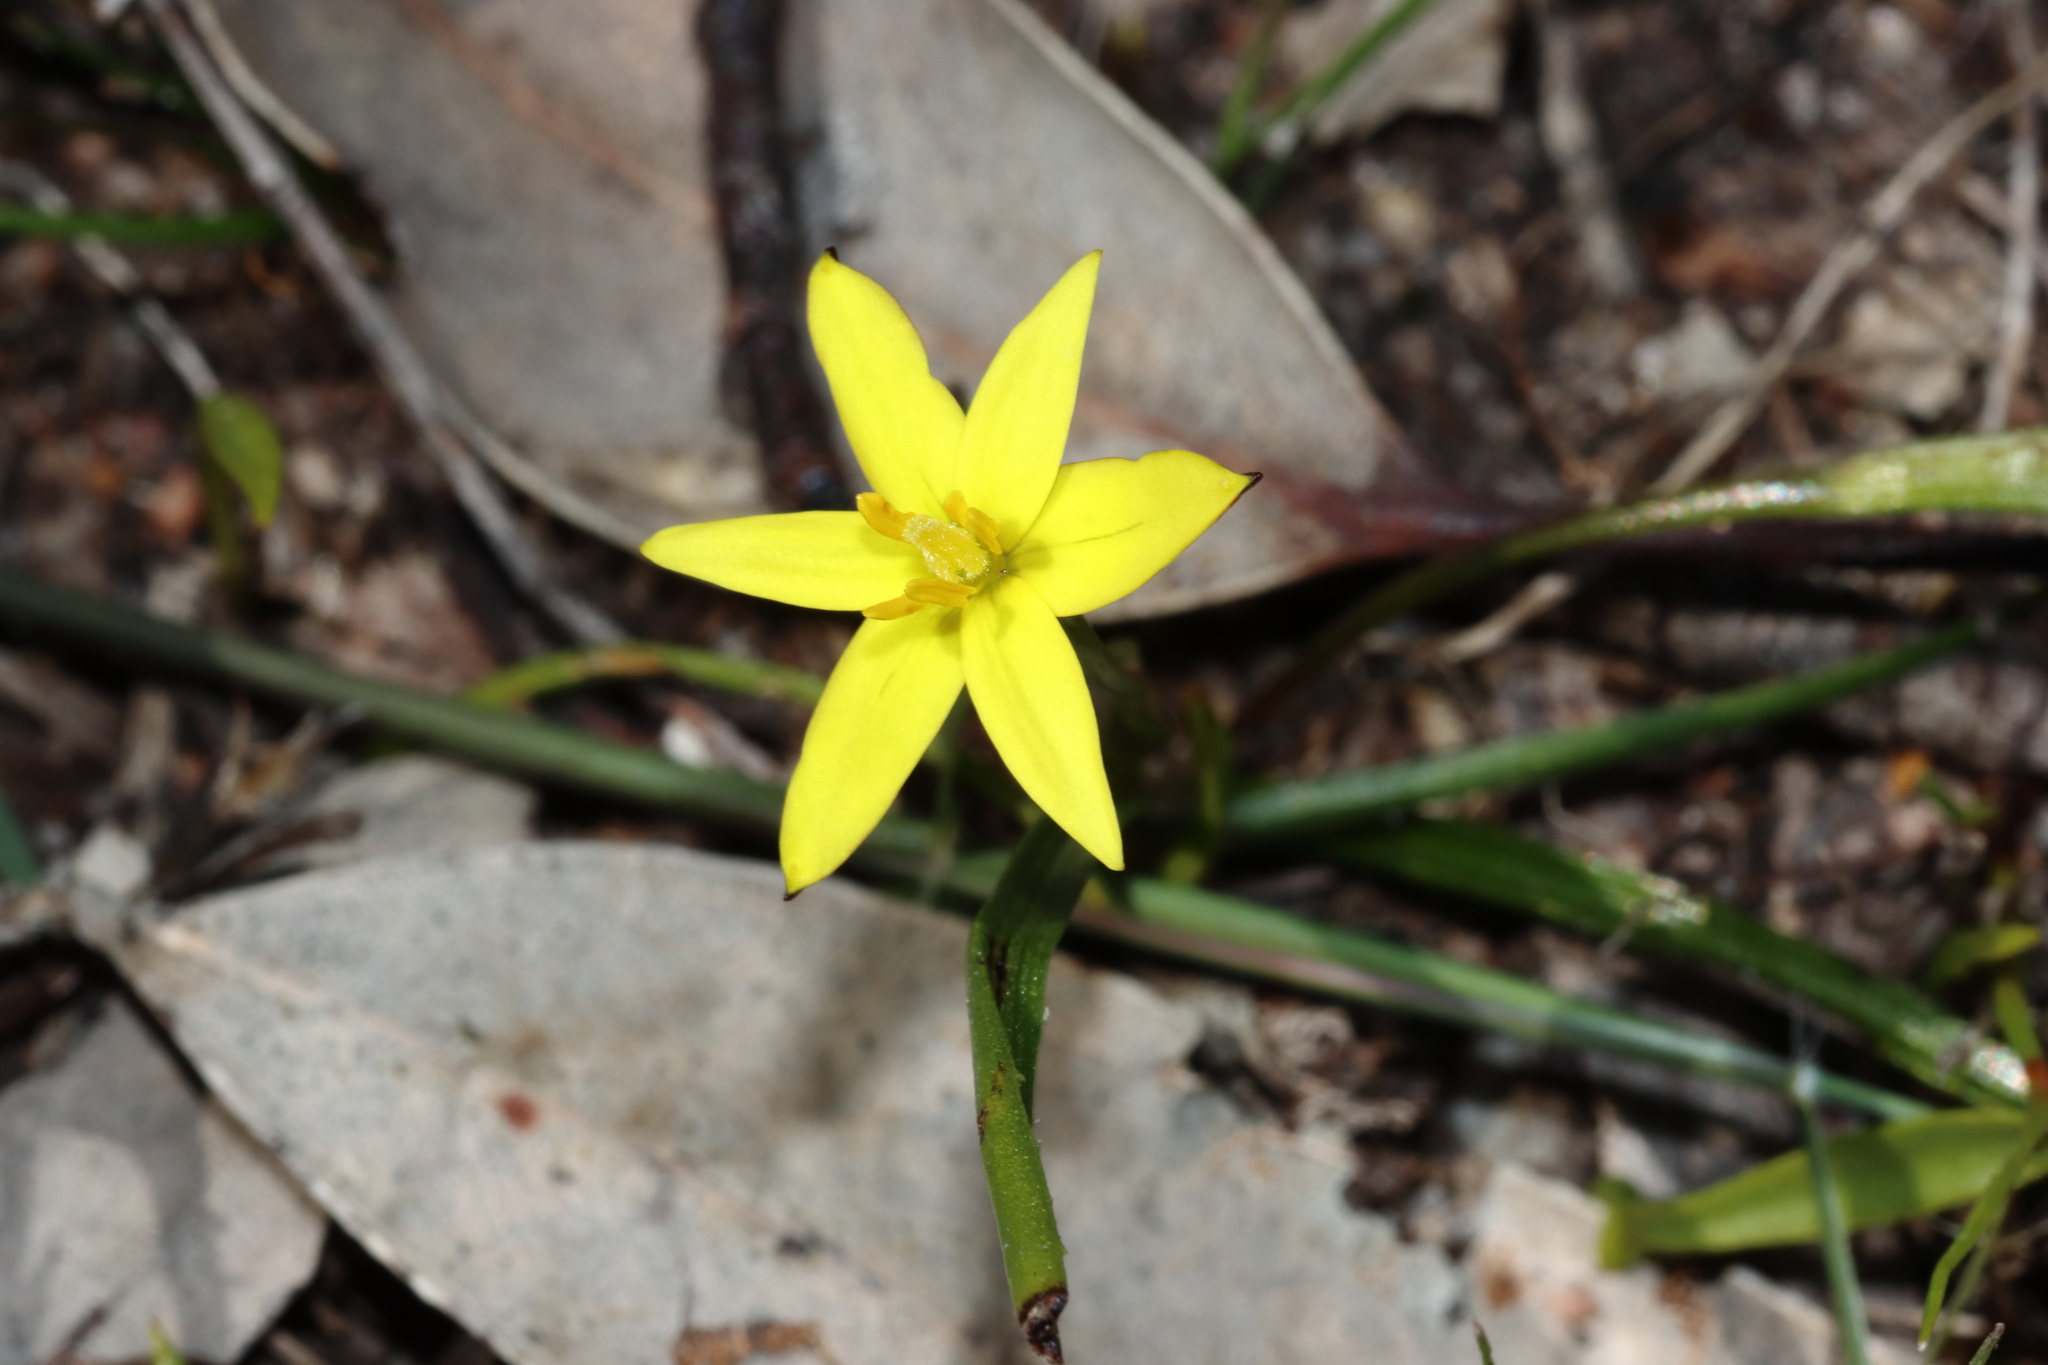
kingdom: Plantae
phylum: Tracheophyta
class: Liliopsida
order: Asparagales
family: Asphodelaceae
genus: Tricoryne
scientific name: Tricoryne humilis
